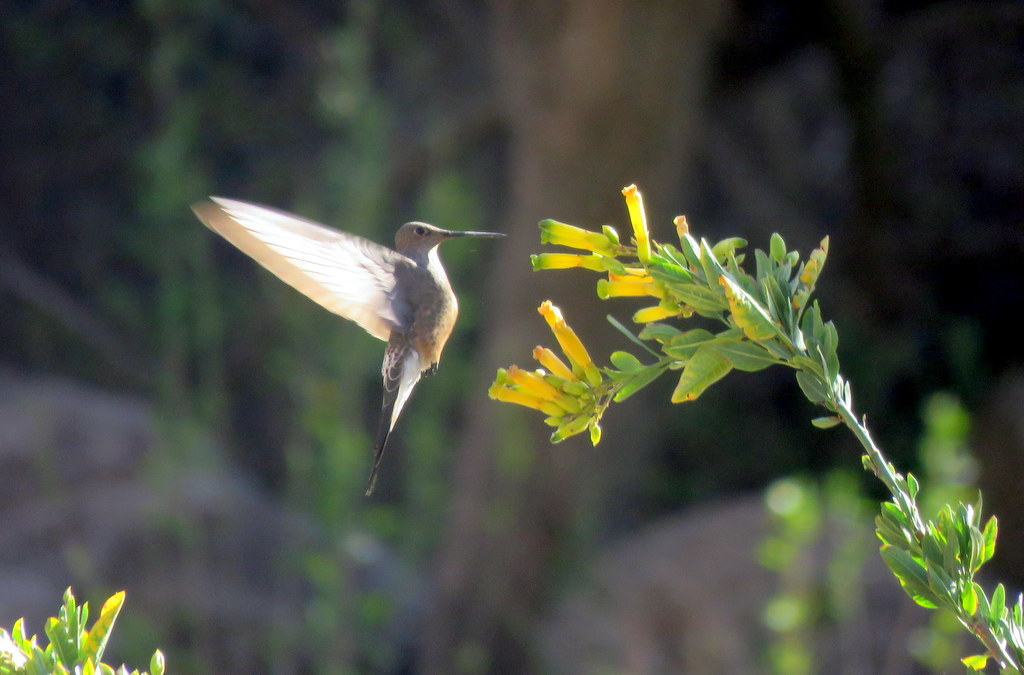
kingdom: Animalia
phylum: Chordata
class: Aves
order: Apodiformes
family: Trochilidae
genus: Patagona
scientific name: Patagona gigas
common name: Giant hummingbird
